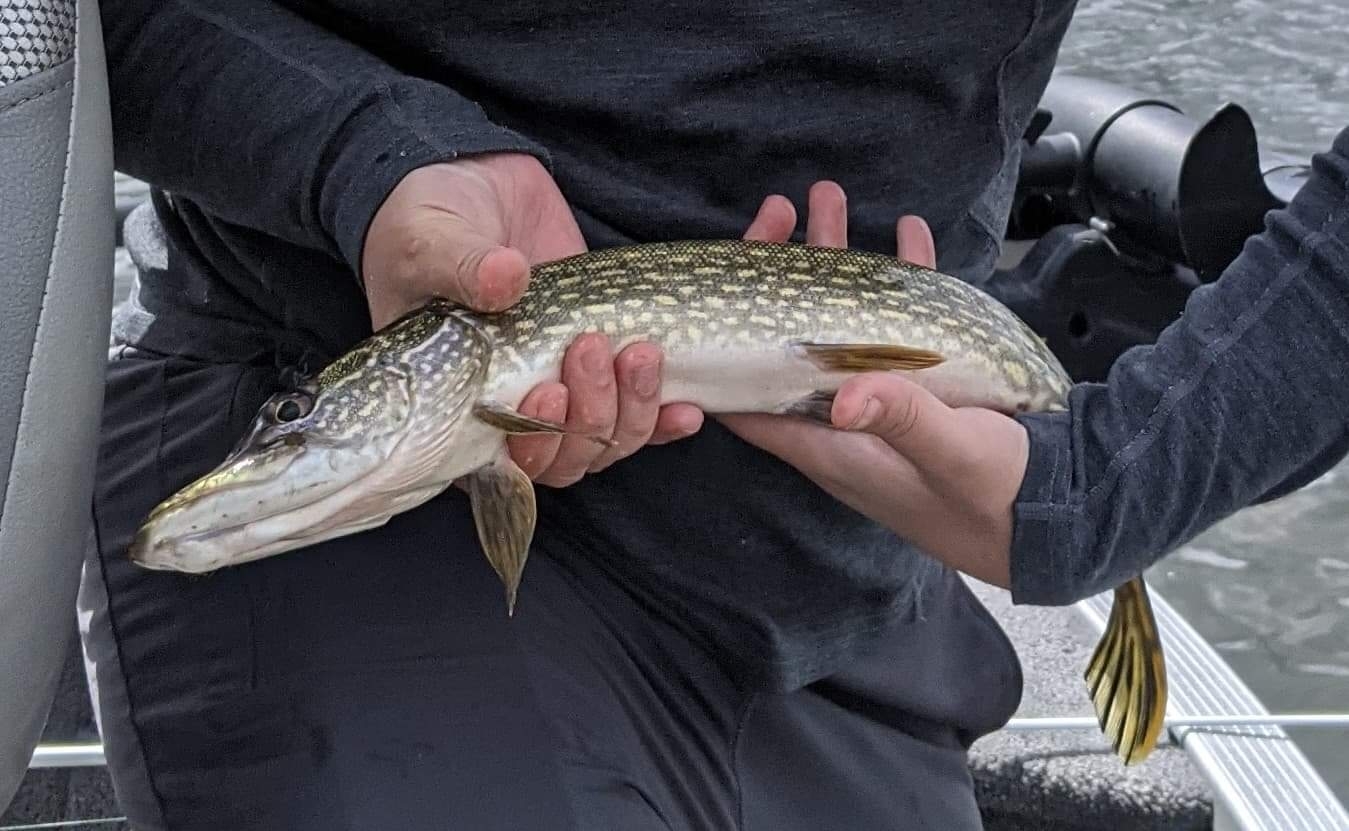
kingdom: Animalia
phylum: Chordata
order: Esociformes
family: Esocidae
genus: Esox
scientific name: Esox lucius
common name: Northern pike
